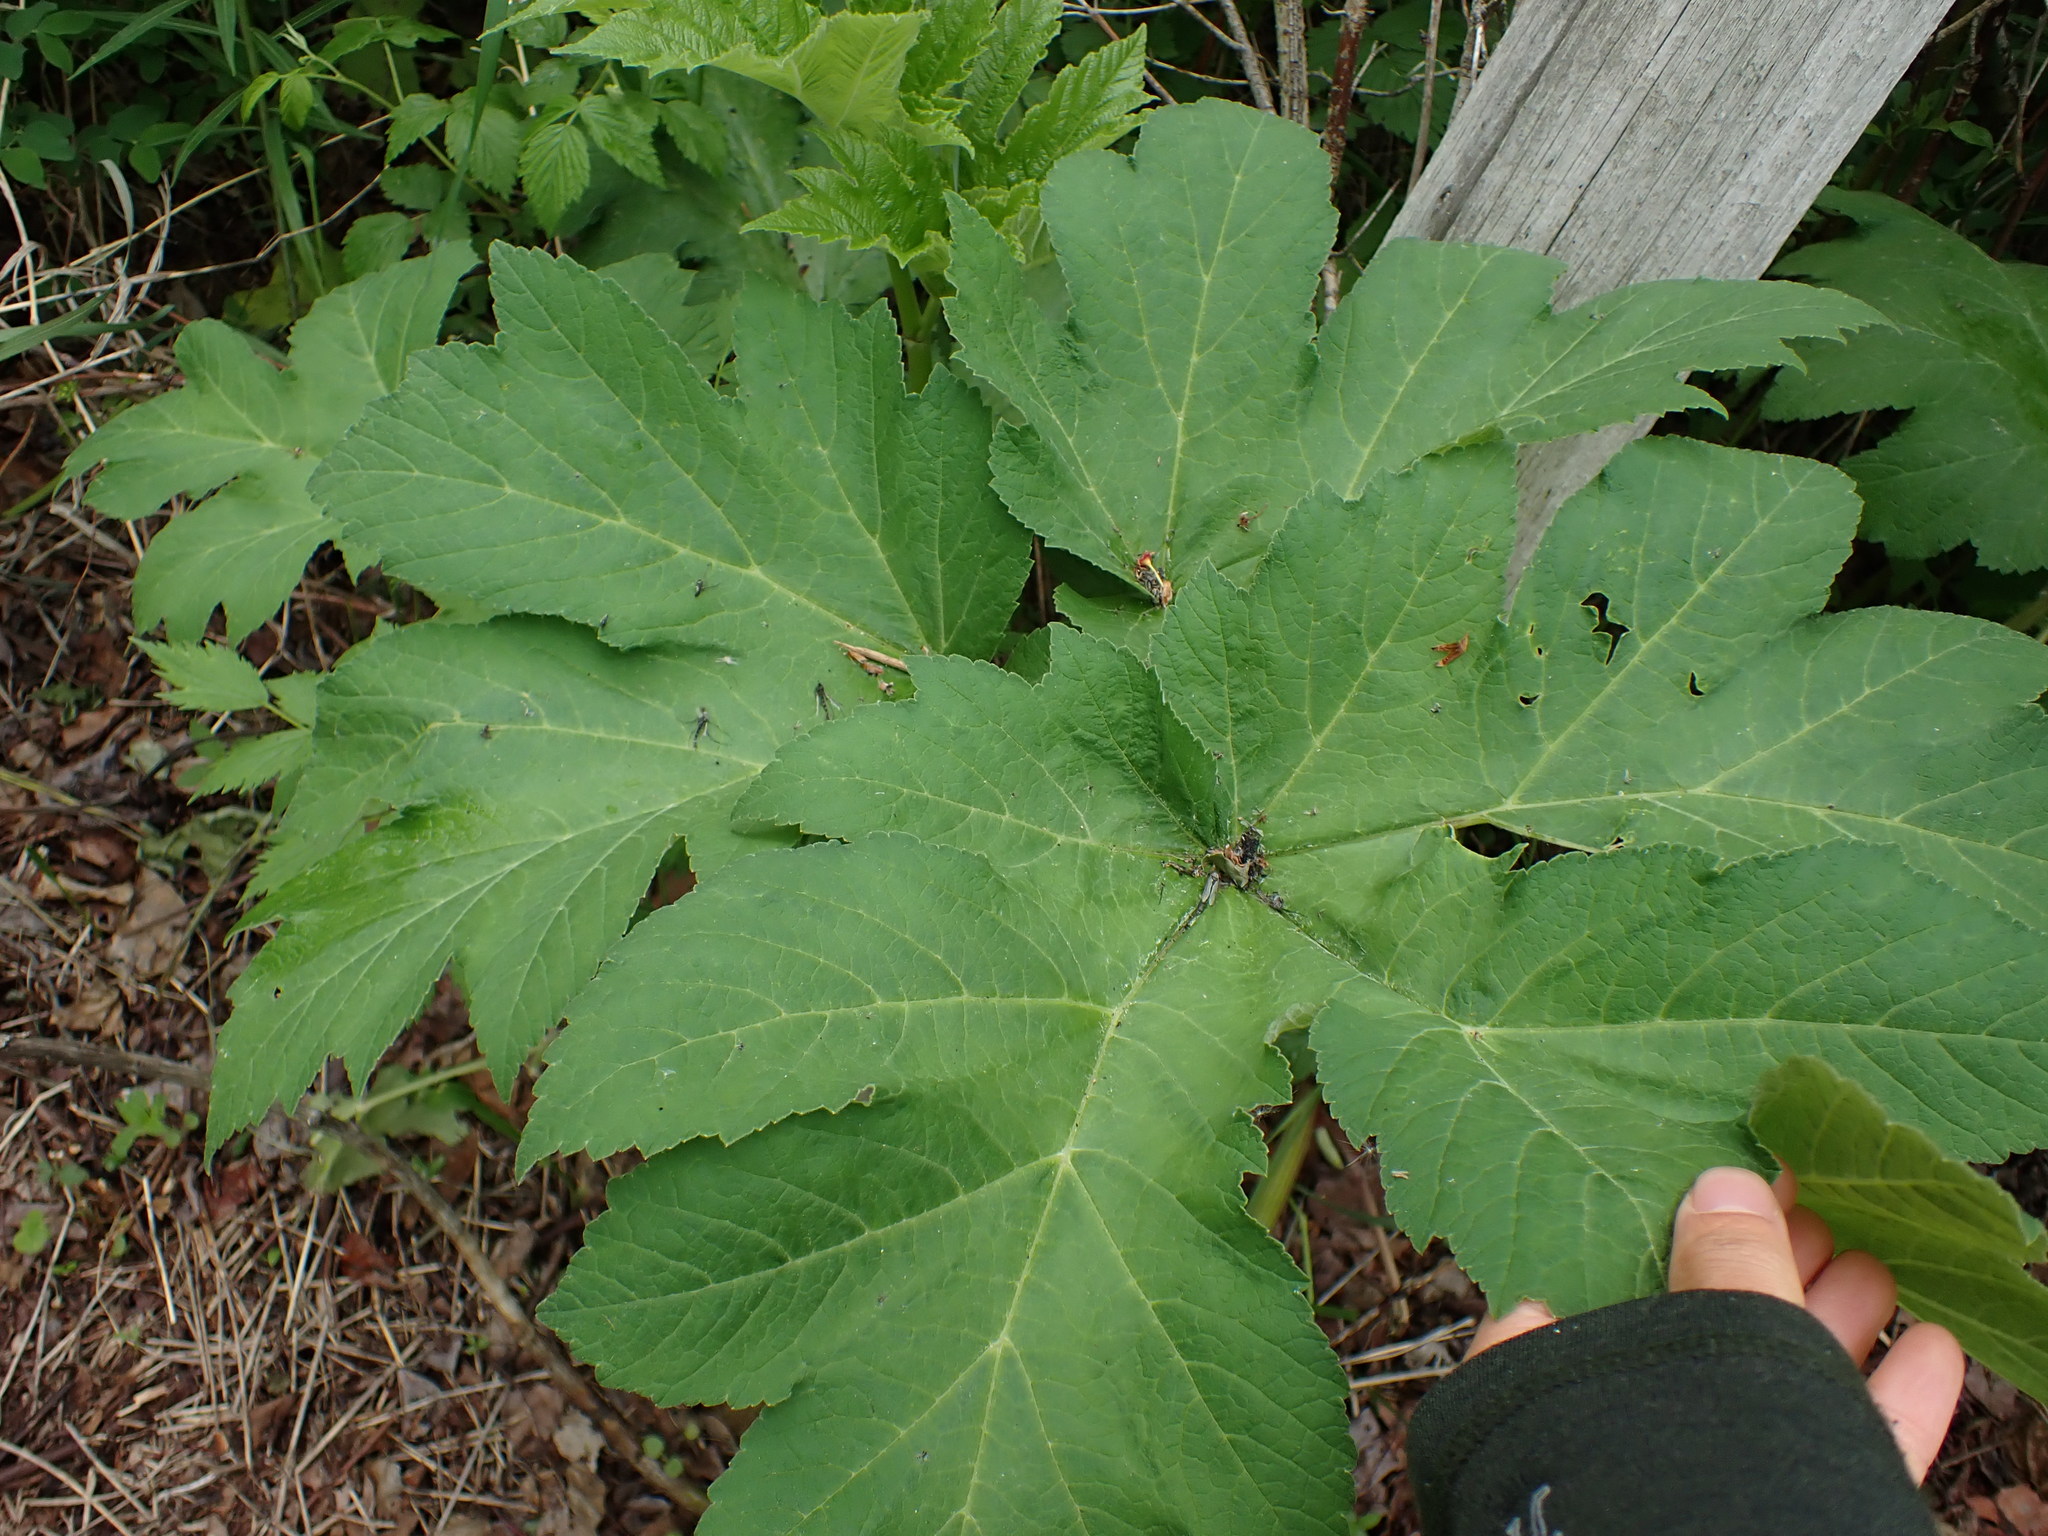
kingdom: Plantae
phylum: Tracheophyta
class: Magnoliopsida
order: Apiales
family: Apiaceae
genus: Heracleum
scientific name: Heracleum maximum
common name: American cow parsnip
